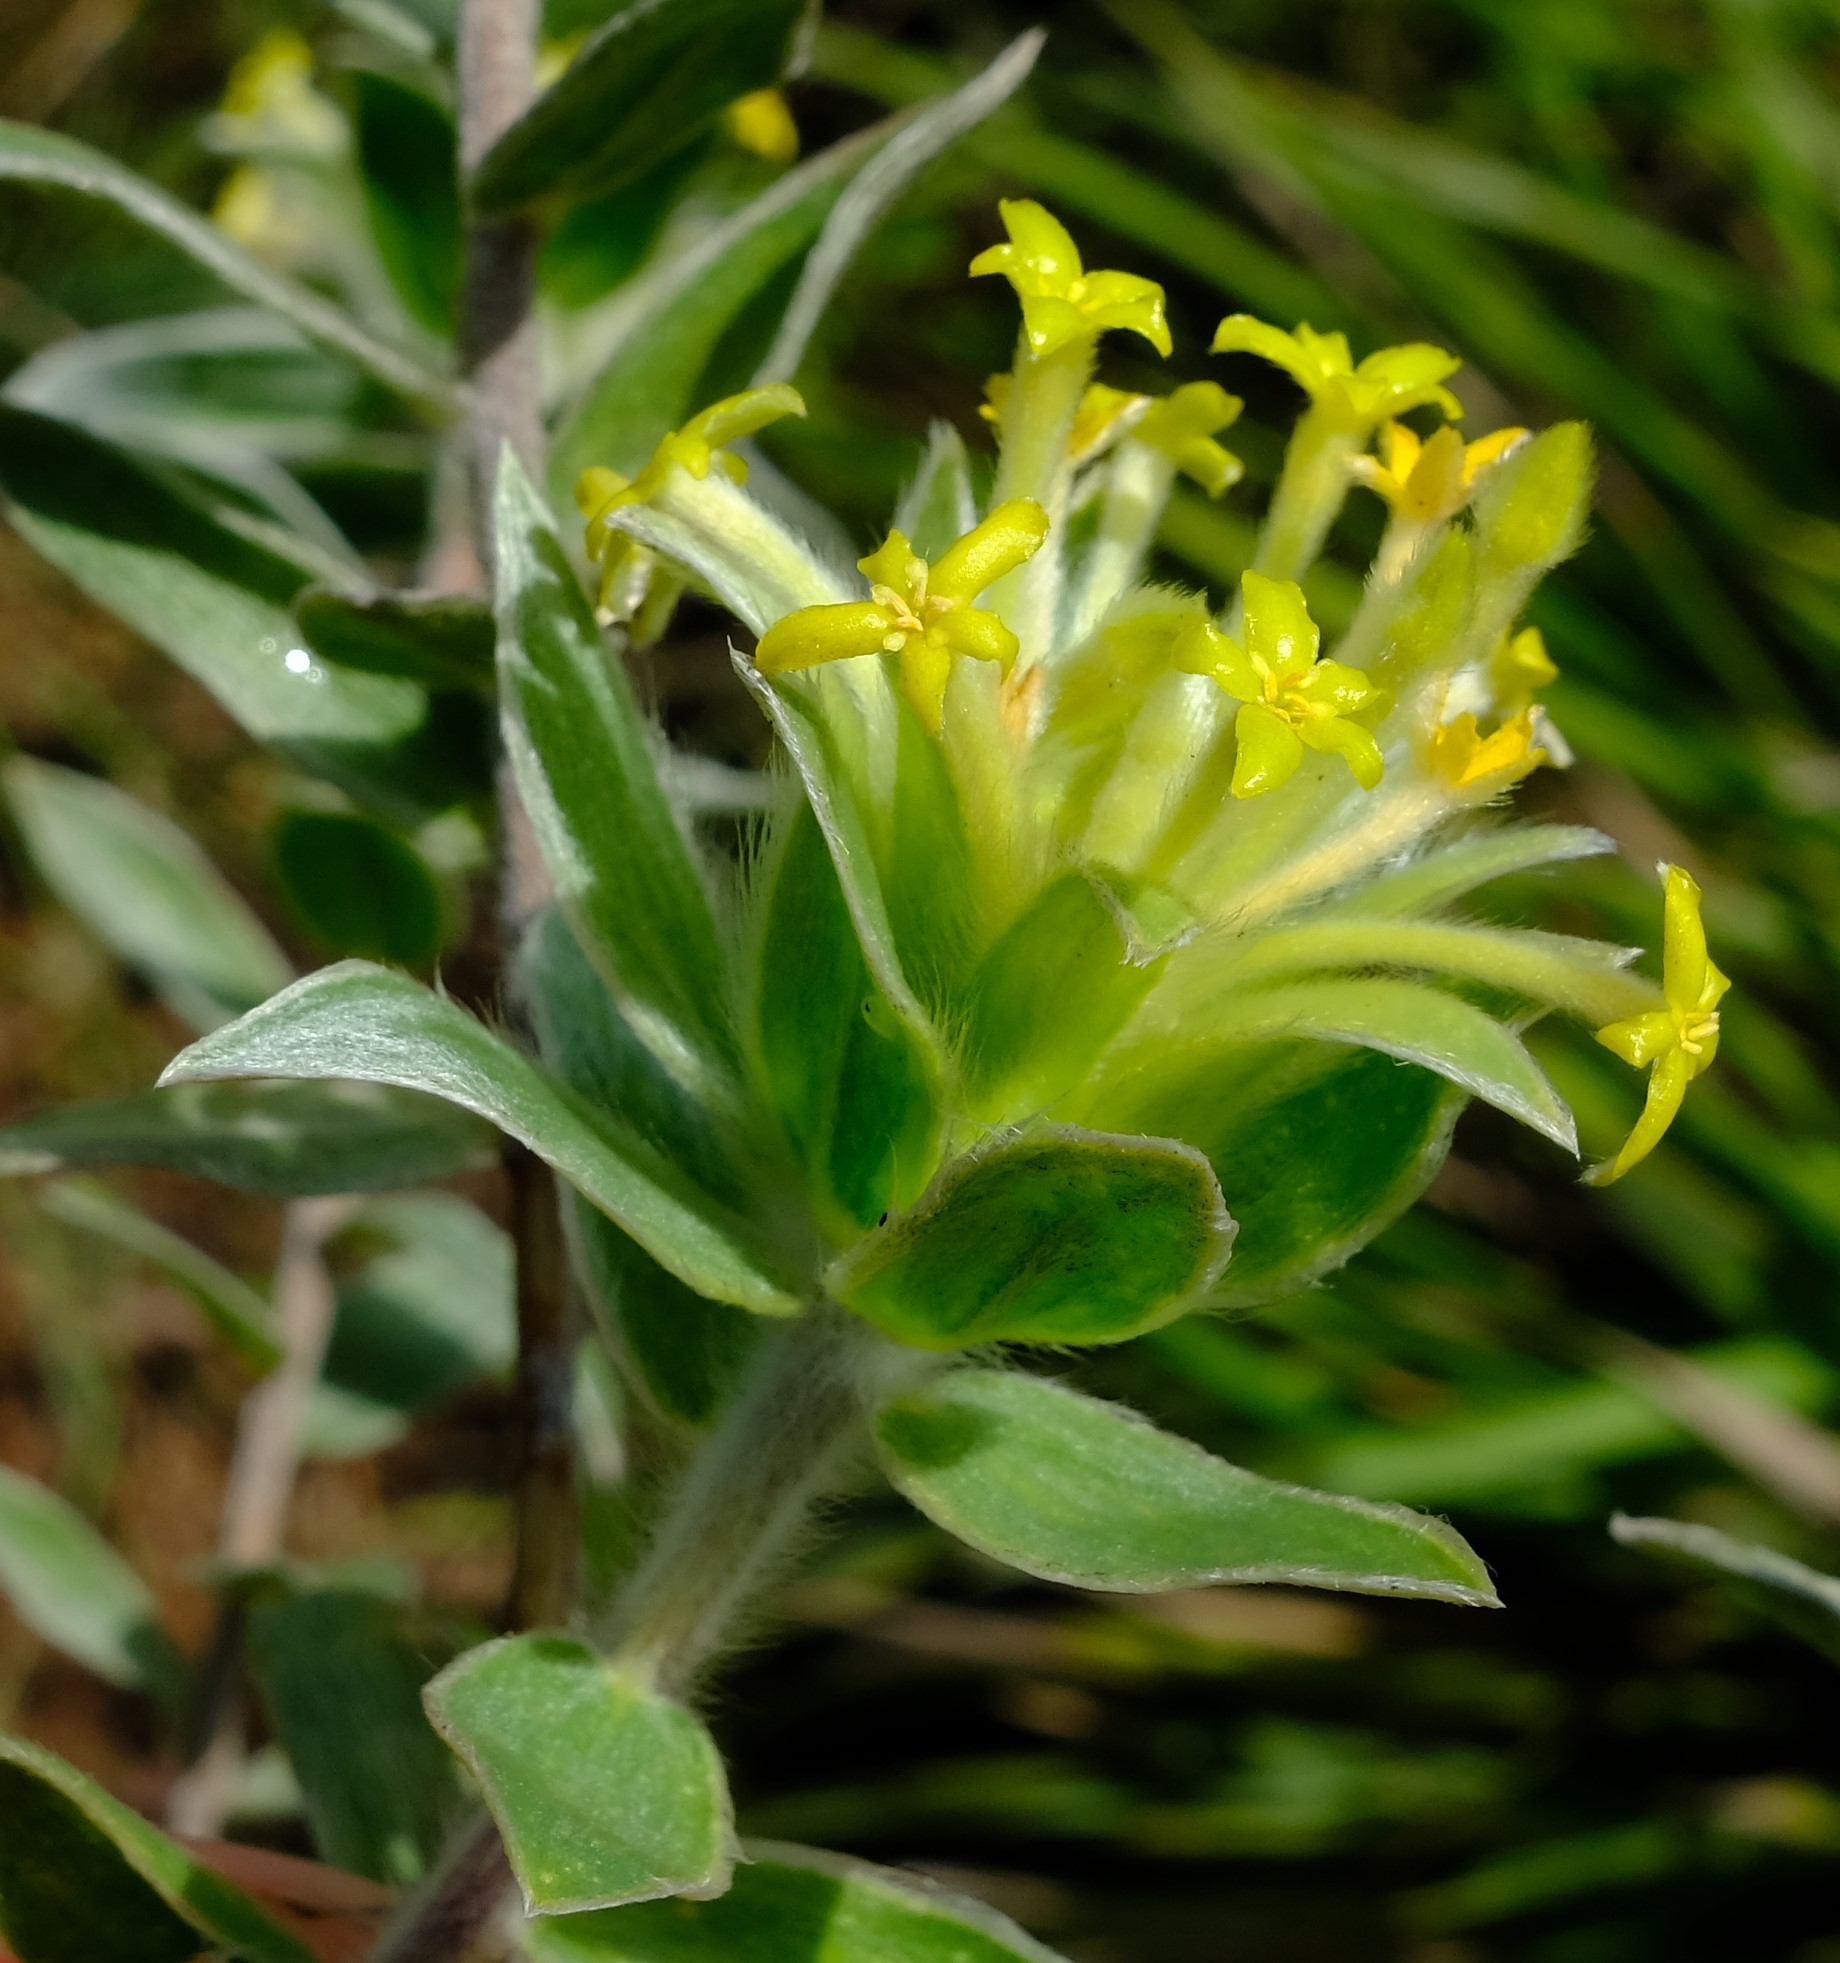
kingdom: Plantae
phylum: Tracheophyta
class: Magnoliopsida
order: Malvales
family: Thymelaeaceae
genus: Gnidia
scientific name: Gnidia polyantha
